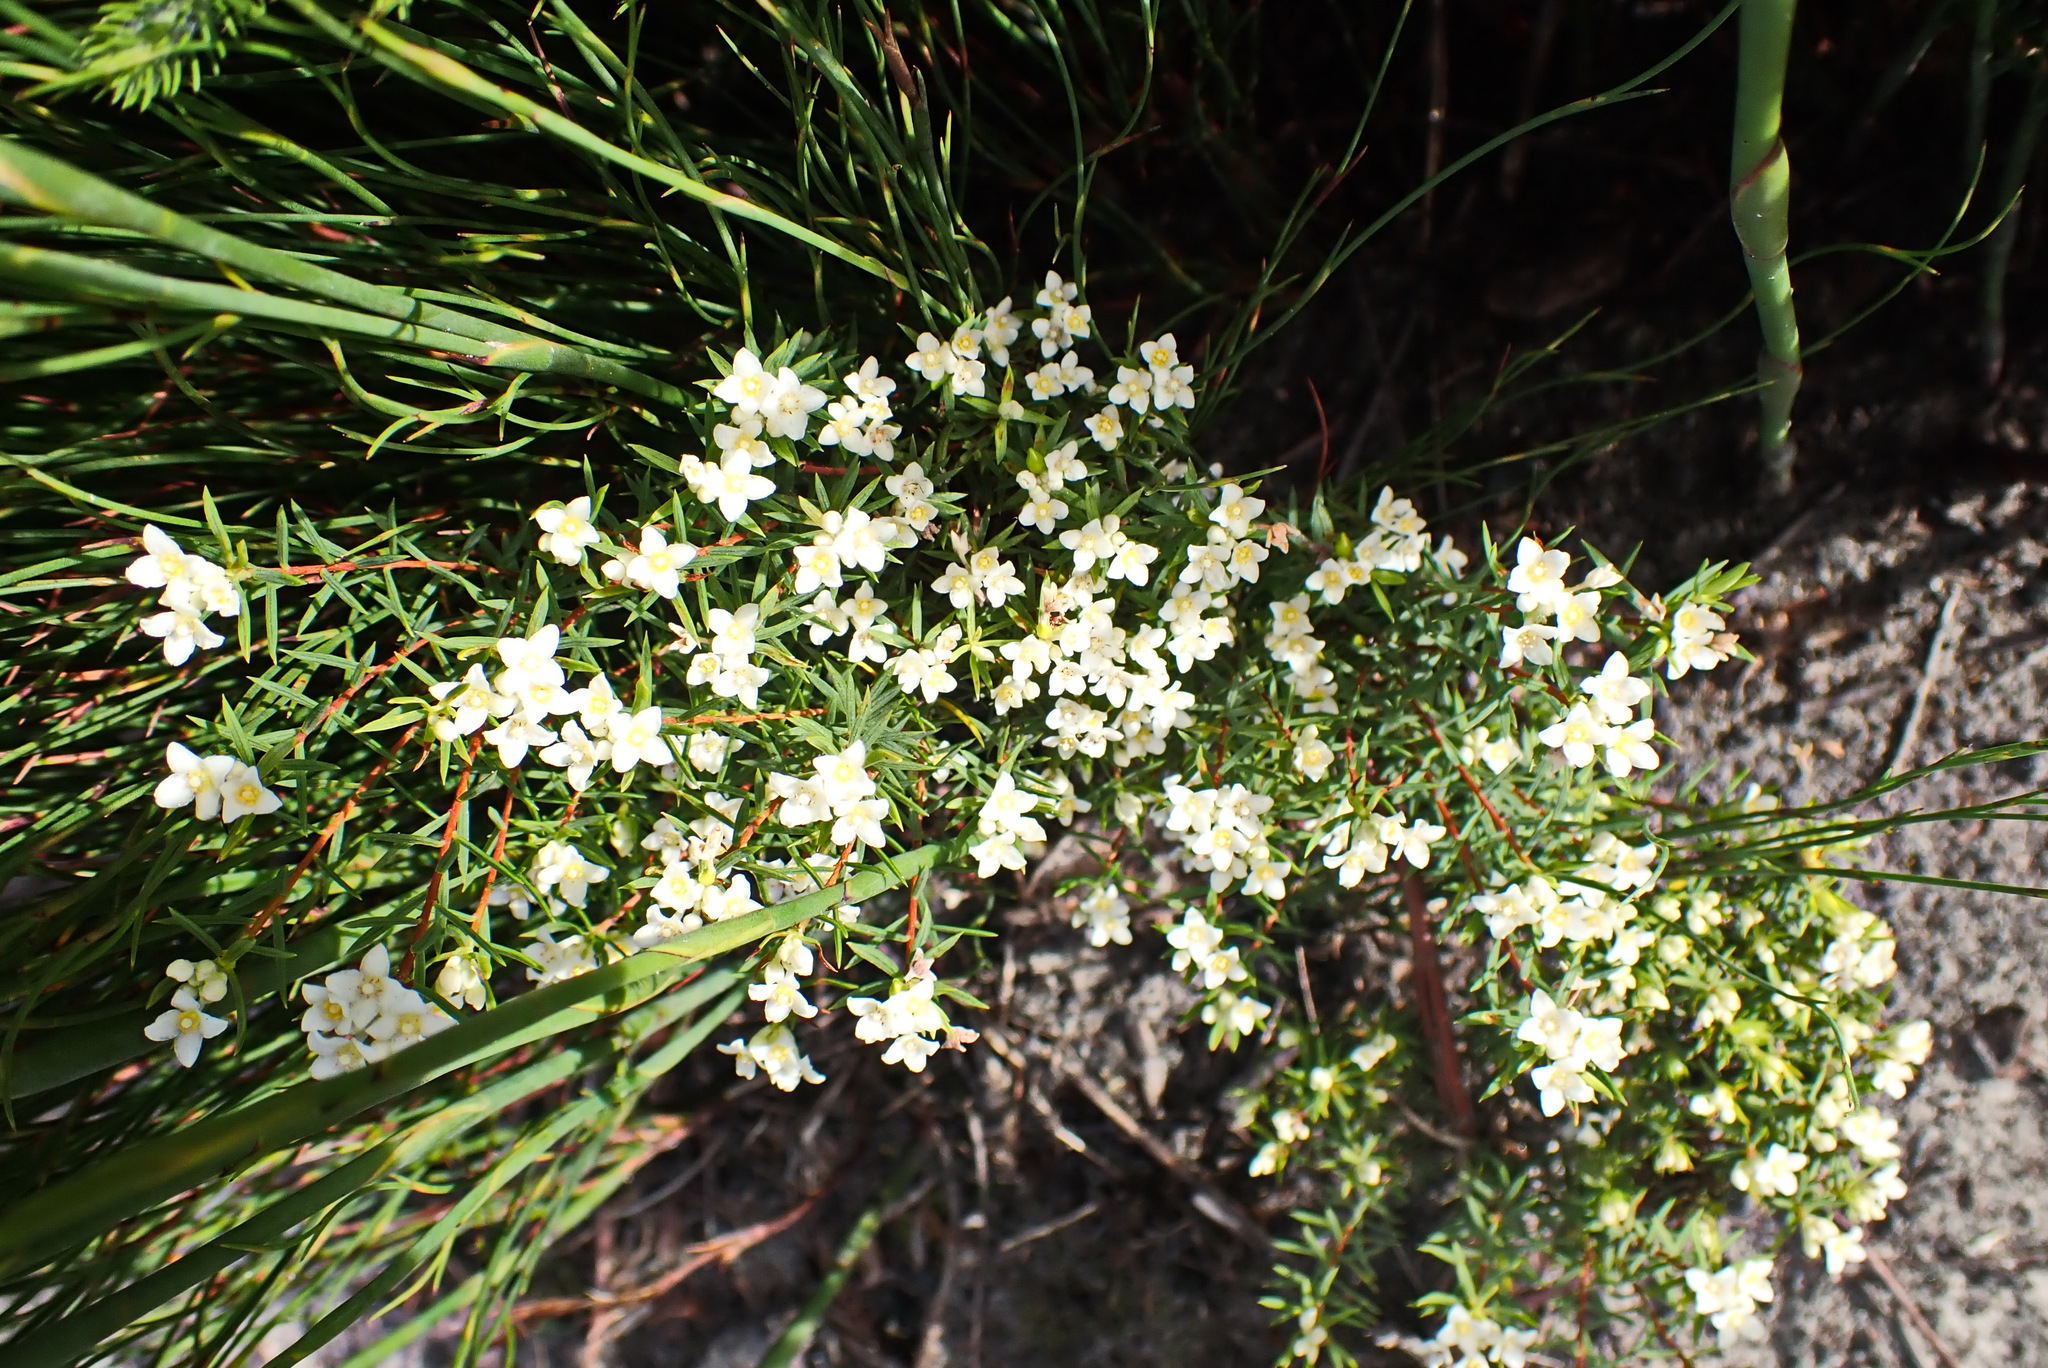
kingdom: Plantae
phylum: Tracheophyta
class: Magnoliopsida
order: Malvales
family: Thymelaeaceae
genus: Lachnaea
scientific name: Lachnaea diosmoides
